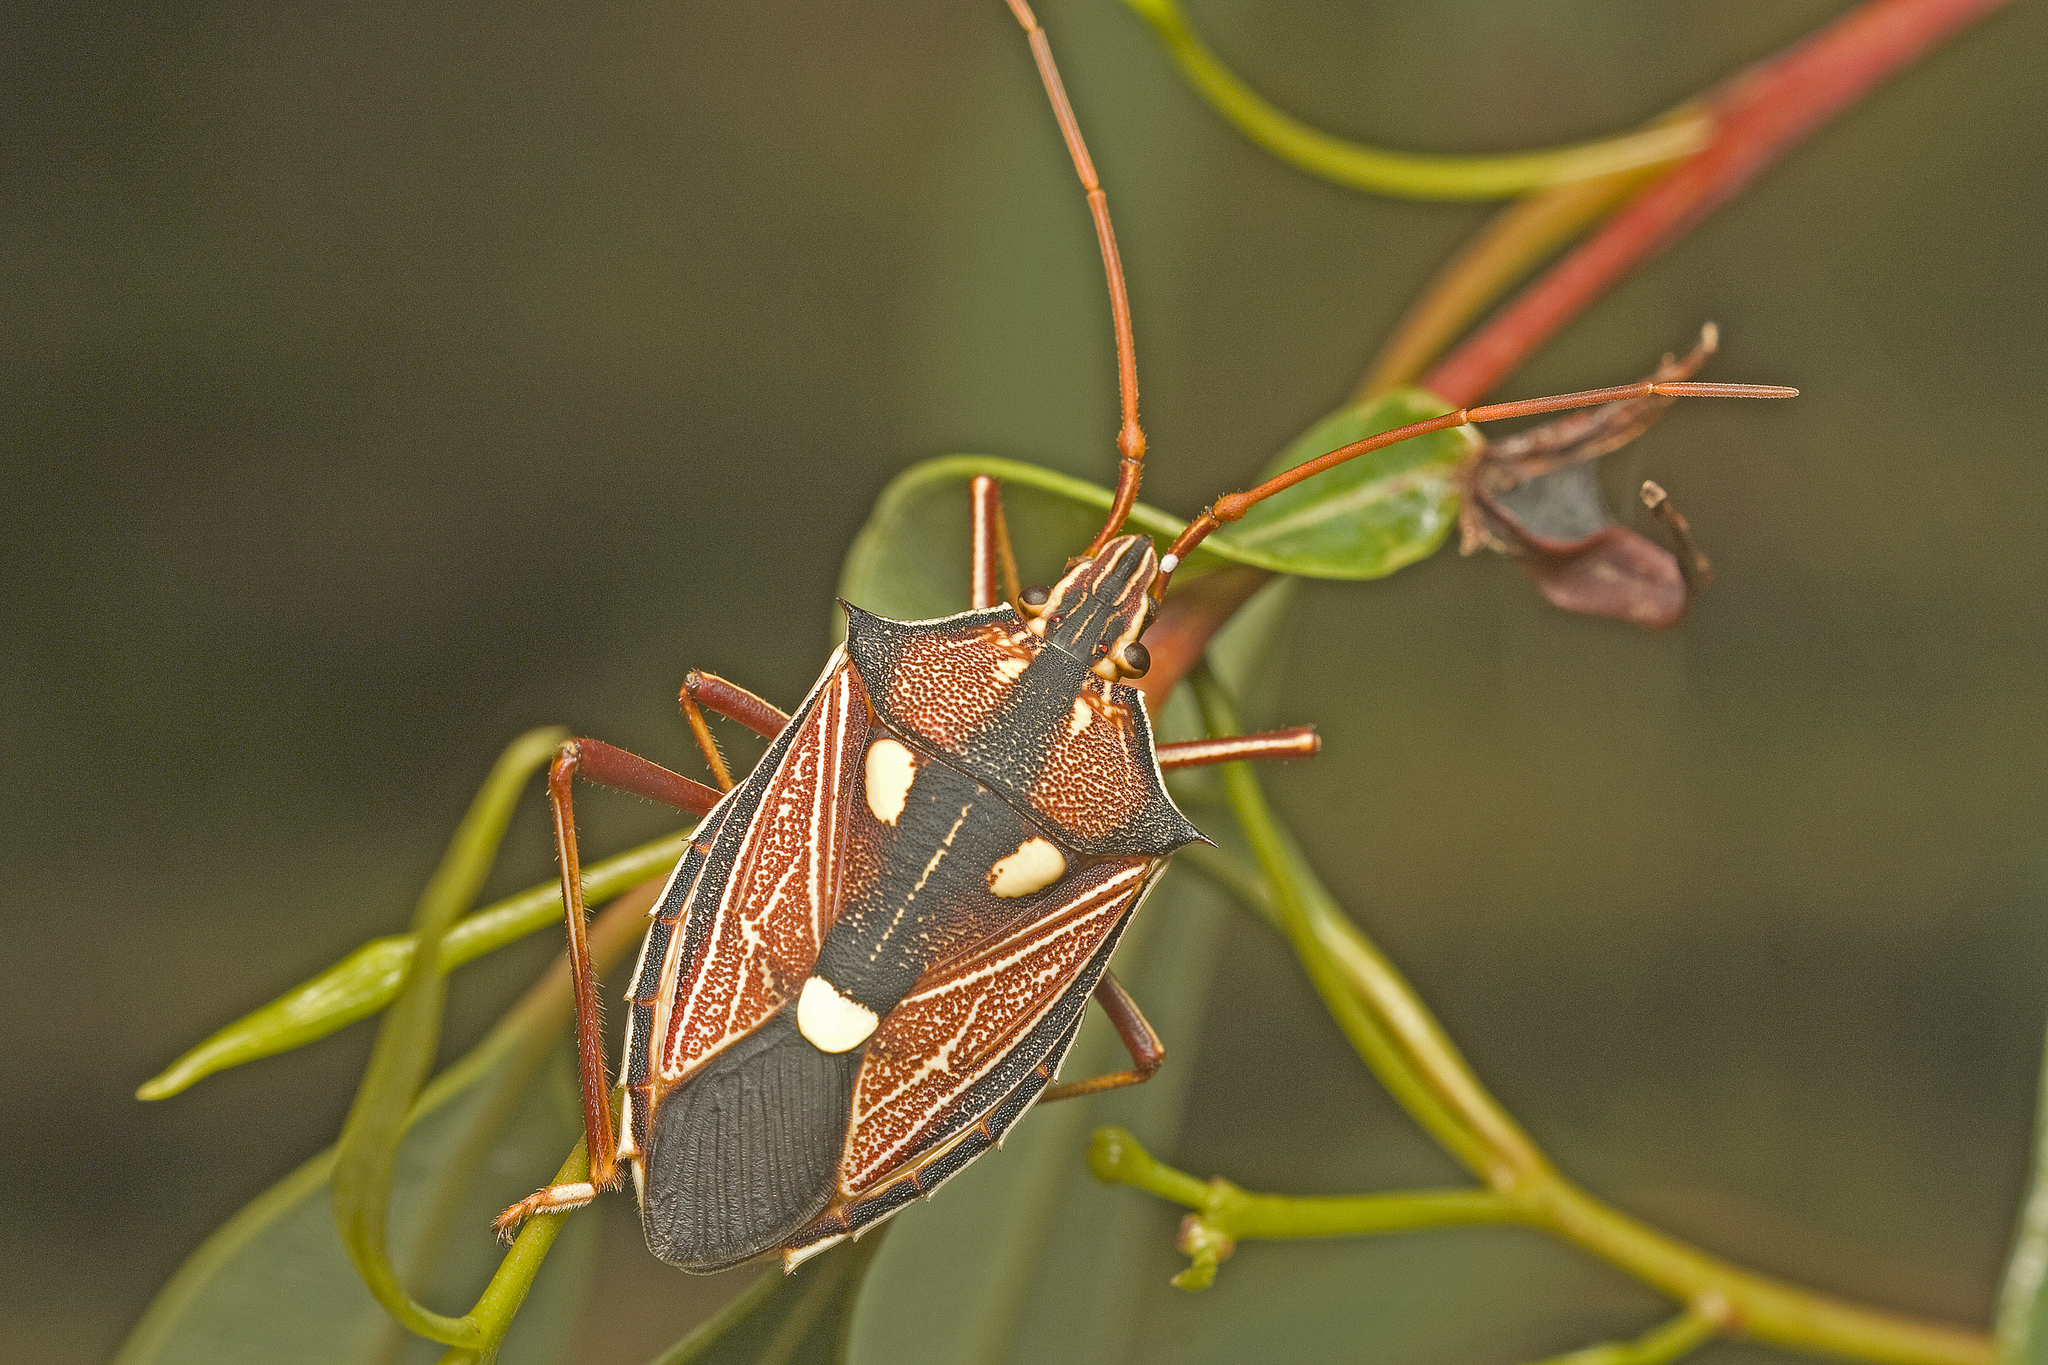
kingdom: Animalia
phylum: Arthropoda
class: Insecta
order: Hemiptera
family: Pentatomidae
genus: Poecilometis
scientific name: Poecilometis armatus
